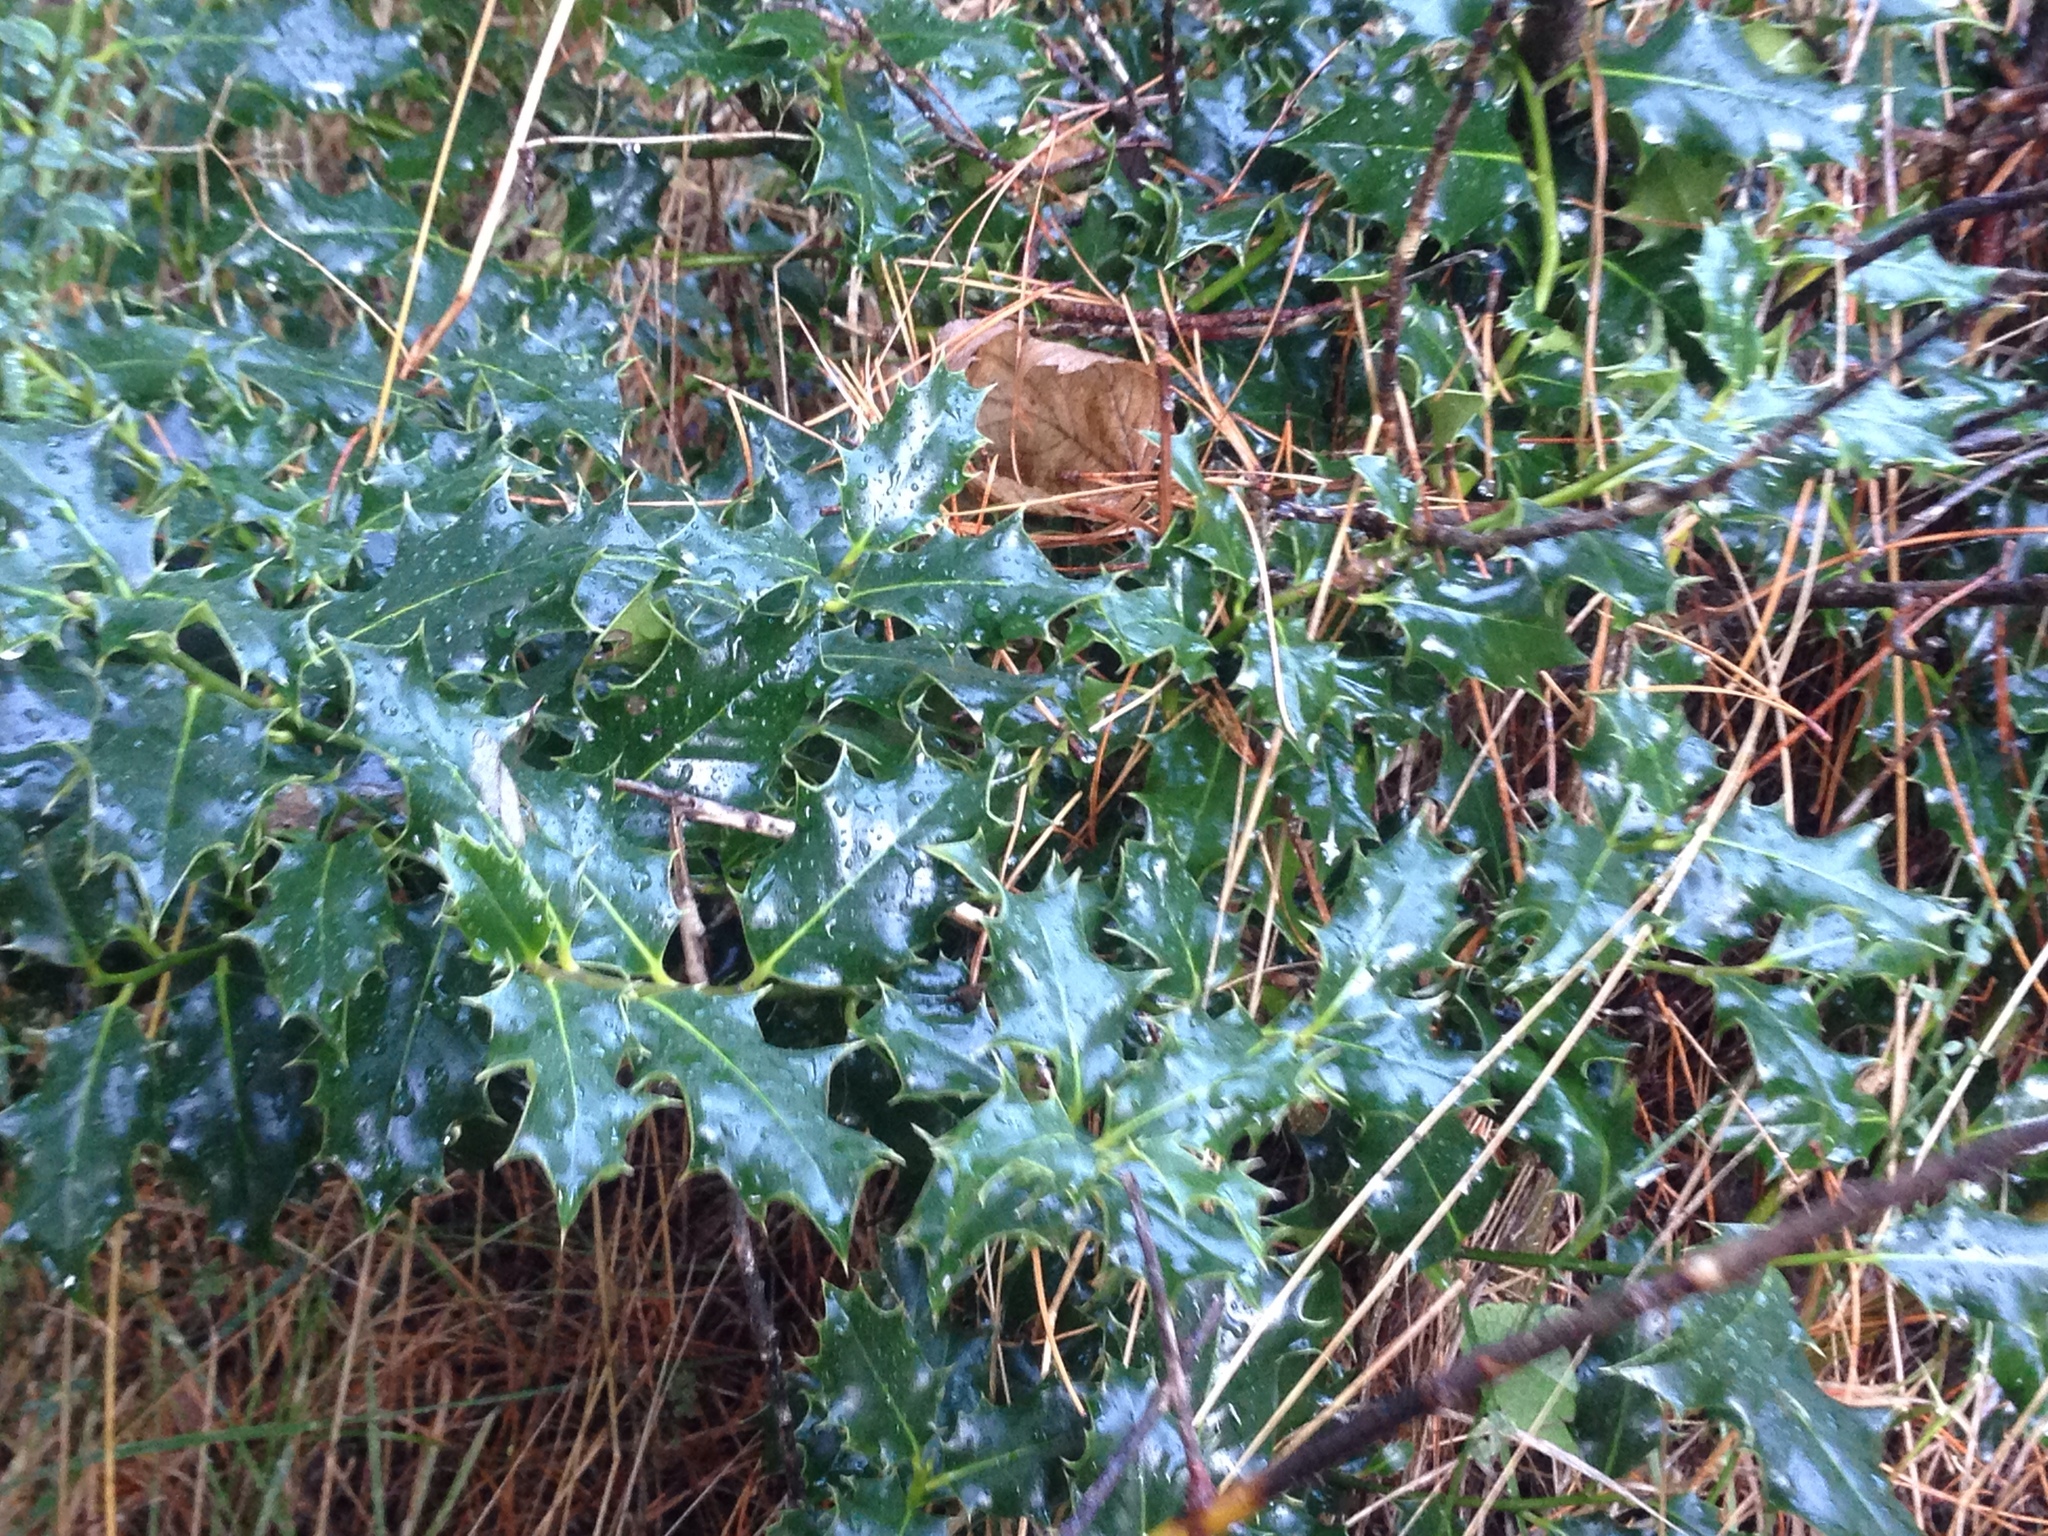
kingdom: Plantae
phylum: Tracheophyta
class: Magnoliopsida
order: Aquifoliales
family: Aquifoliaceae
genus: Ilex
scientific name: Ilex aquifolium
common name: English holly
